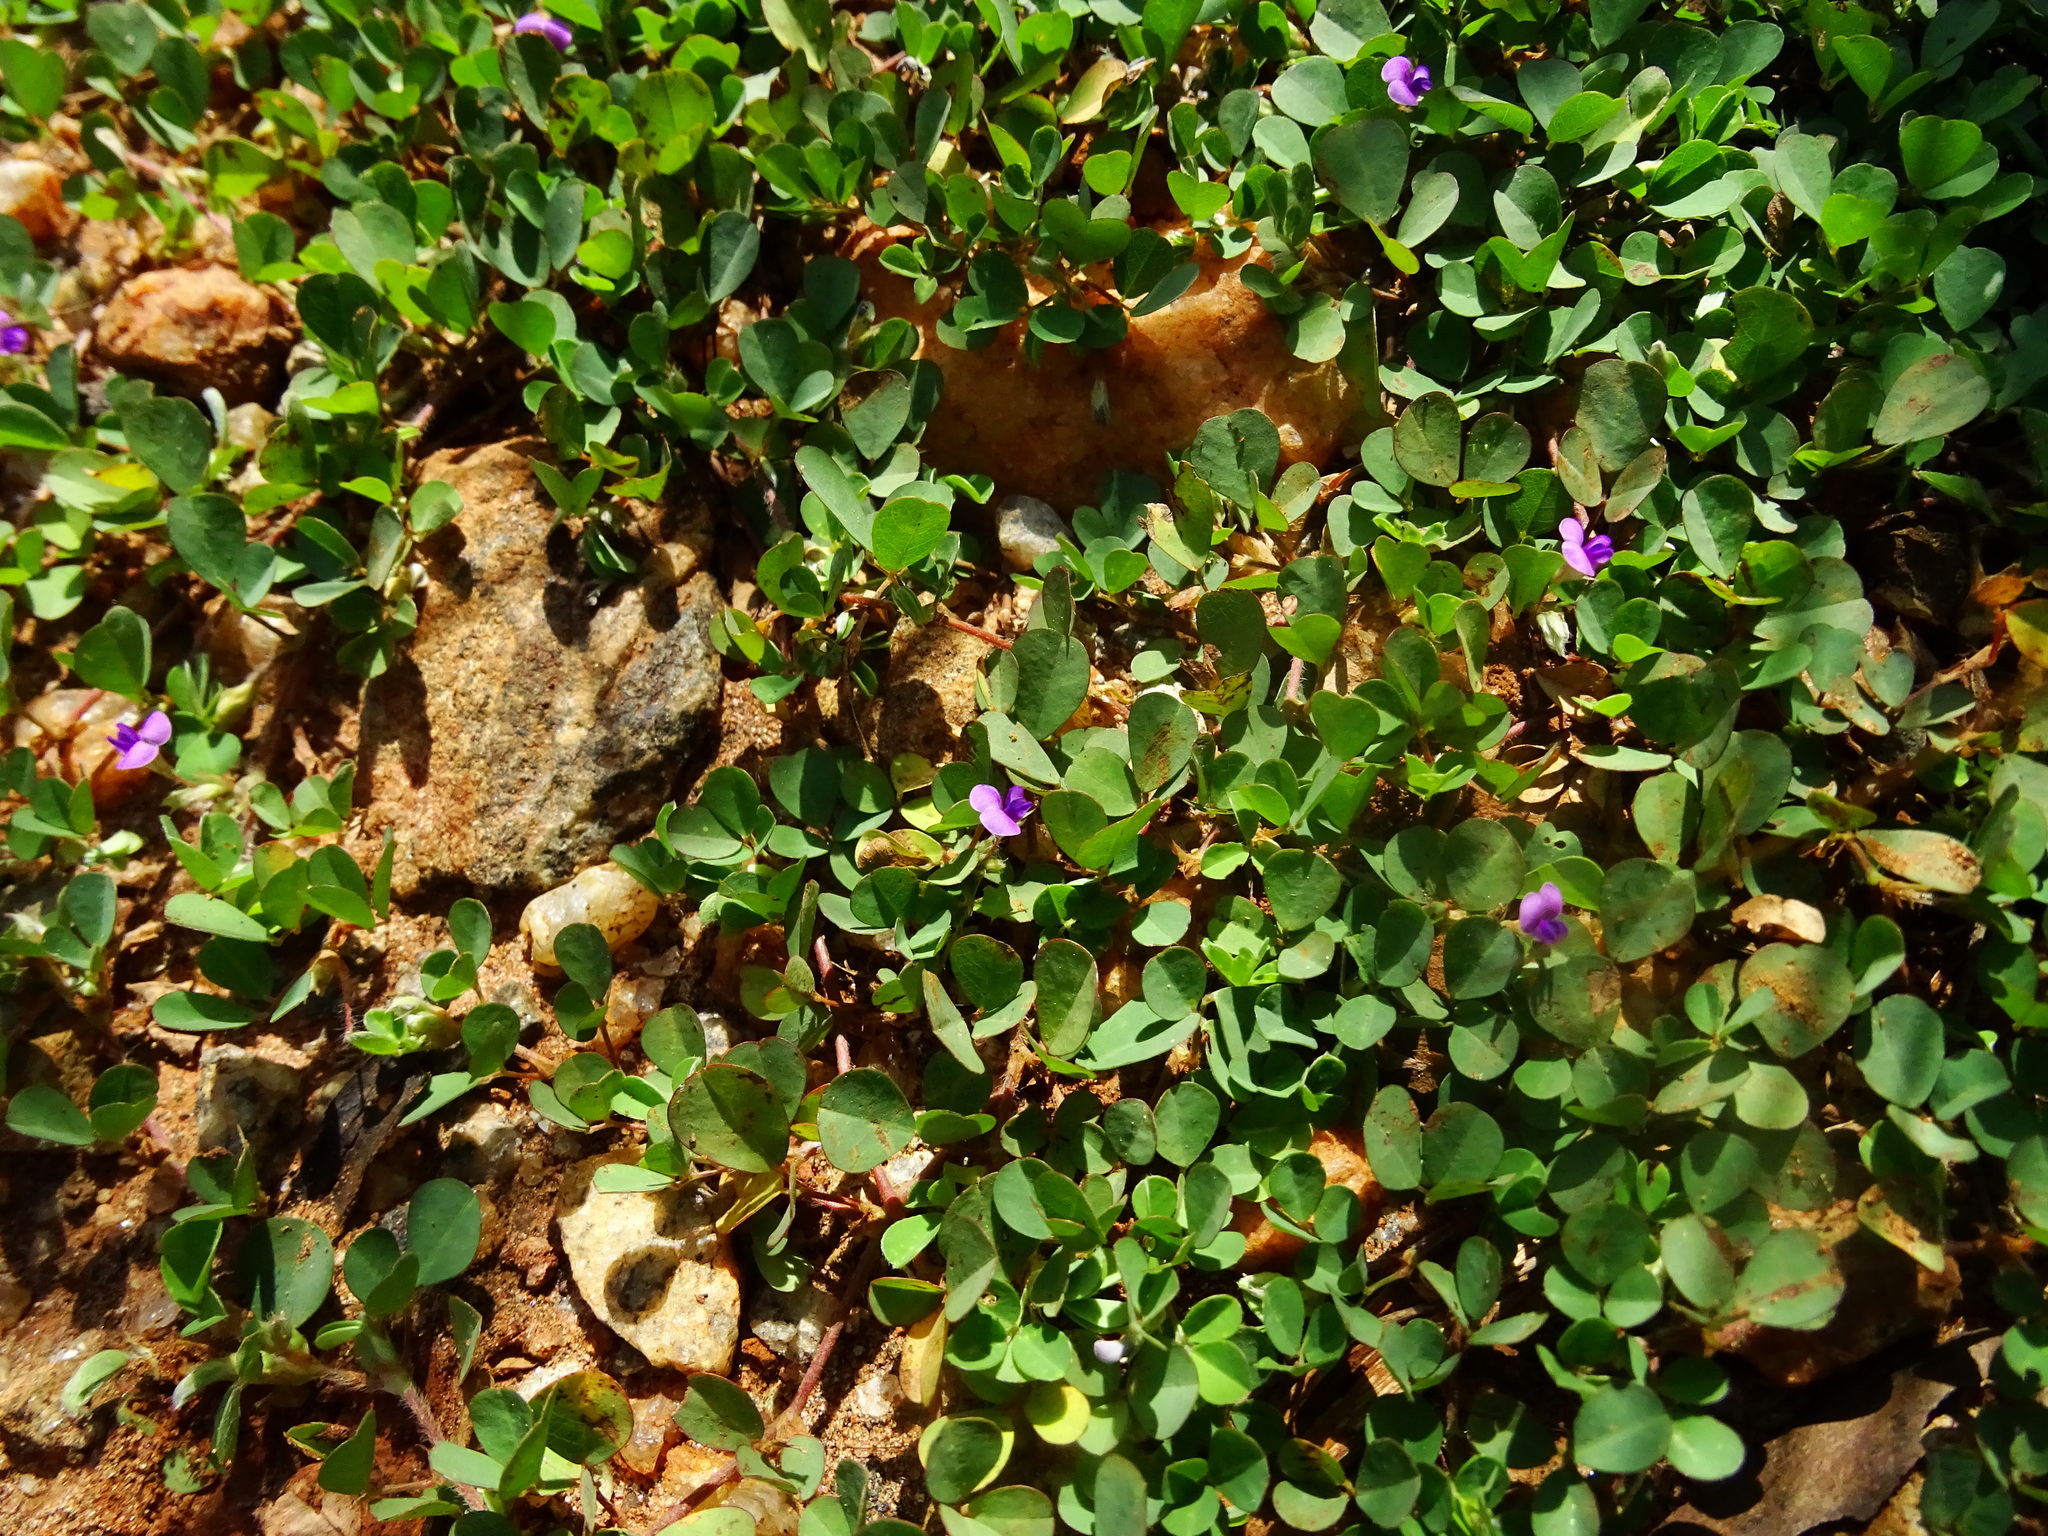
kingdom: Plantae
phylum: Tracheophyta
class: Magnoliopsida
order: Fabales
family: Fabaceae
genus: Grona
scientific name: Grona triflora
